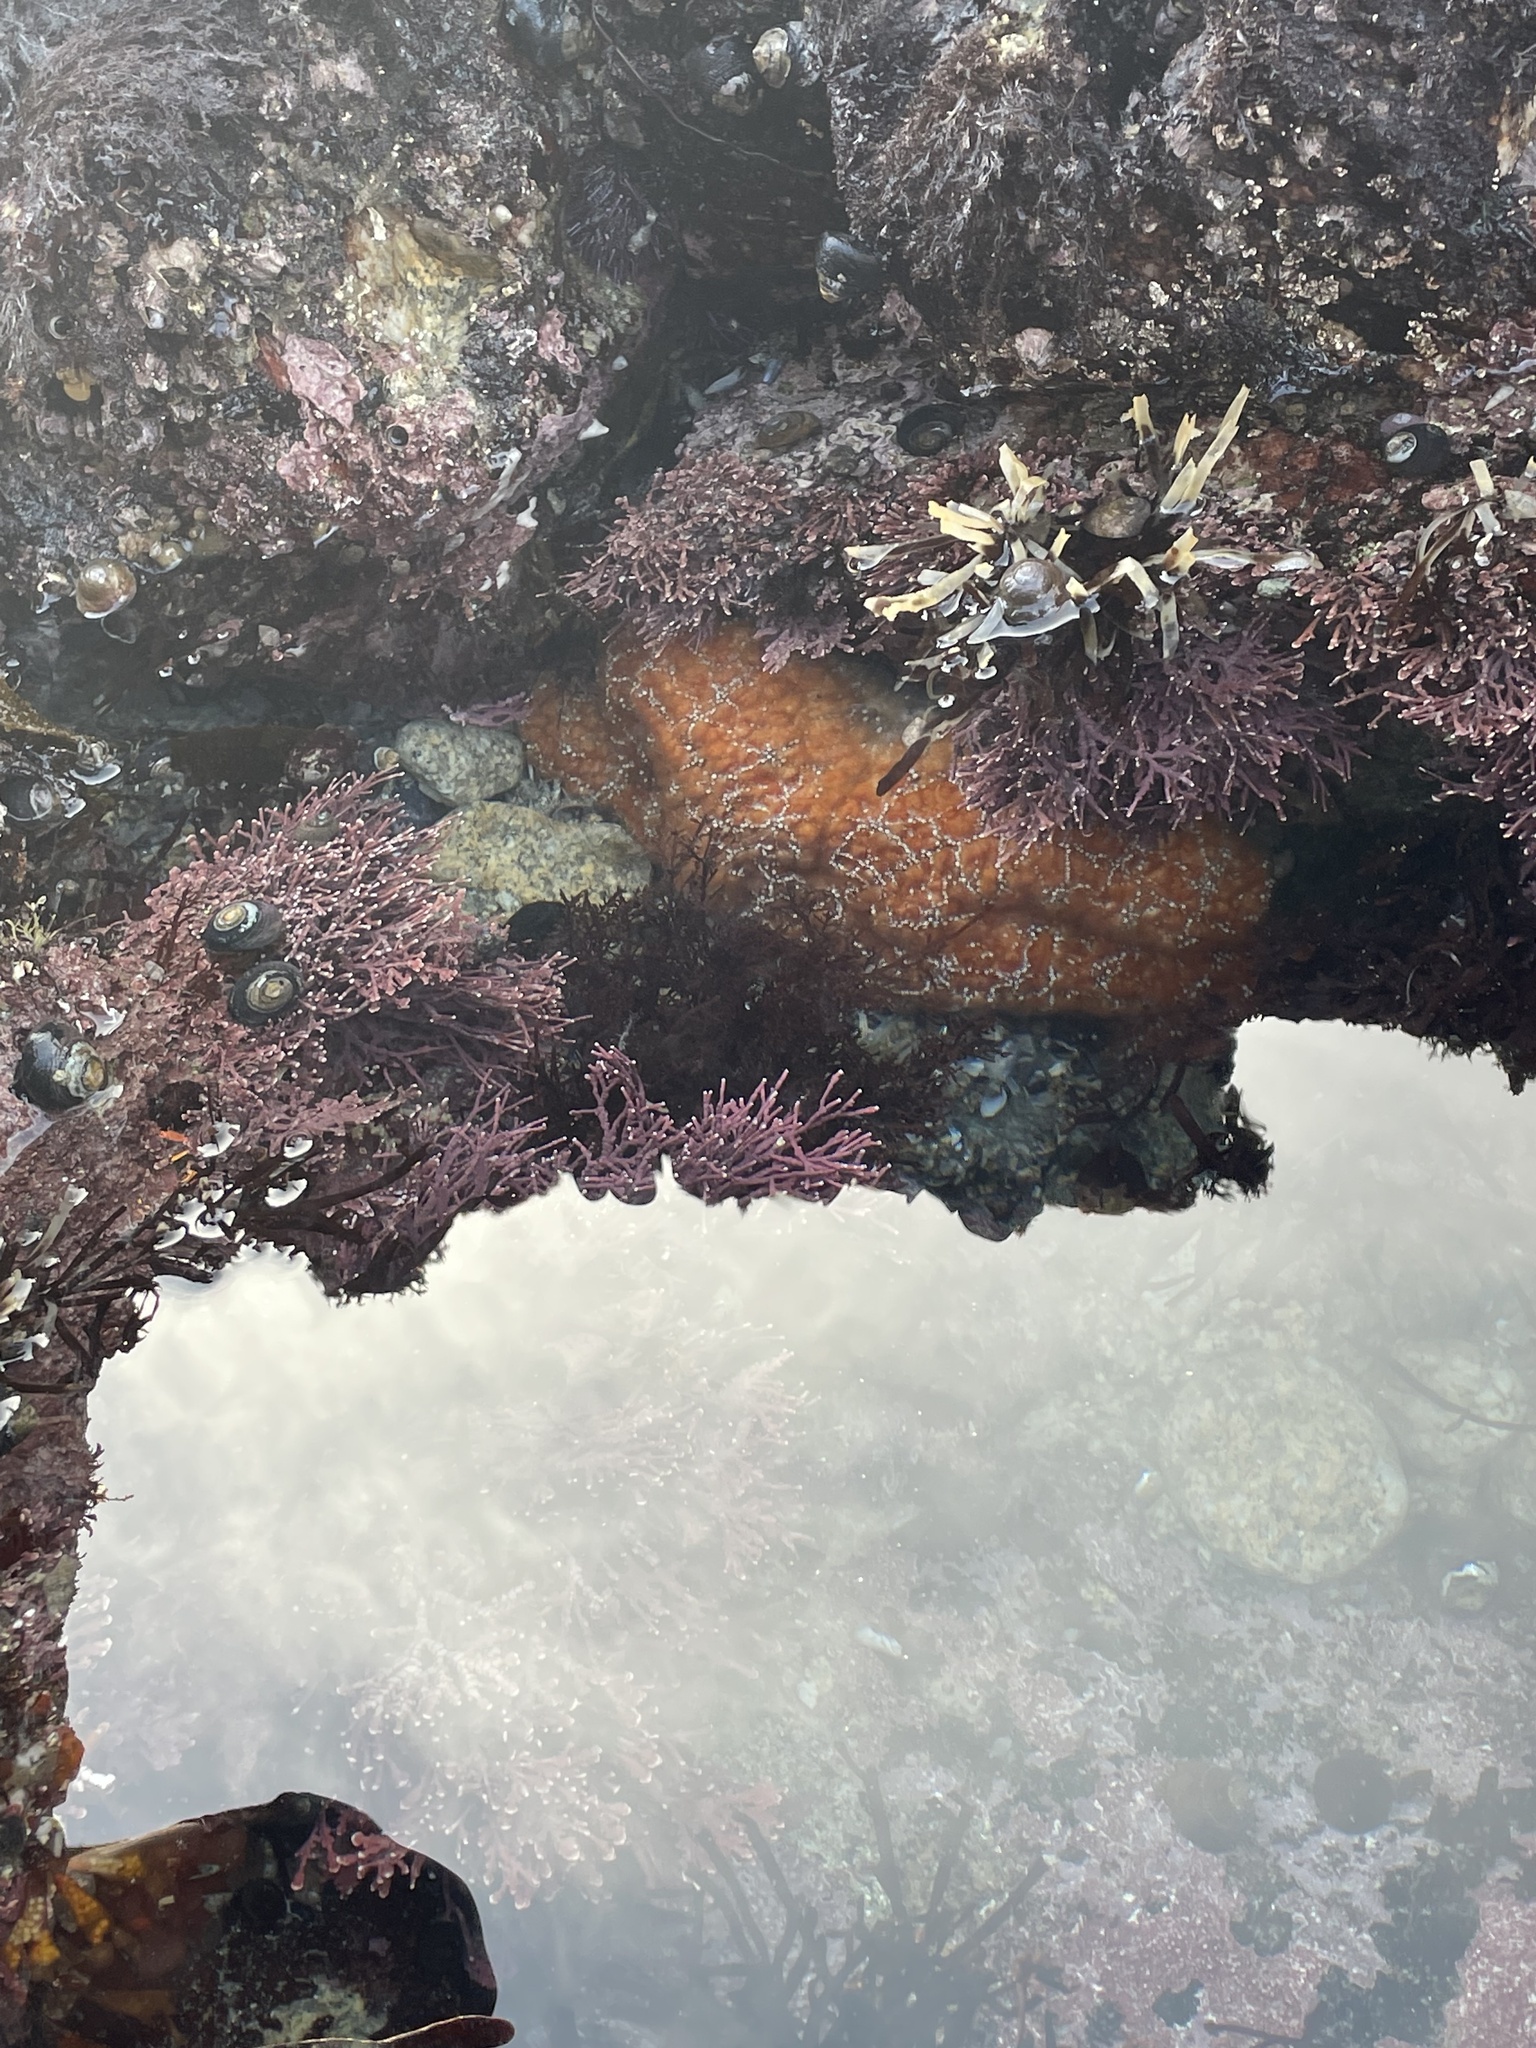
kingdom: Animalia
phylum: Echinodermata
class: Asteroidea
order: Forcipulatida
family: Asteriidae
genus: Pisaster
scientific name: Pisaster ochraceus
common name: Ochre stars
